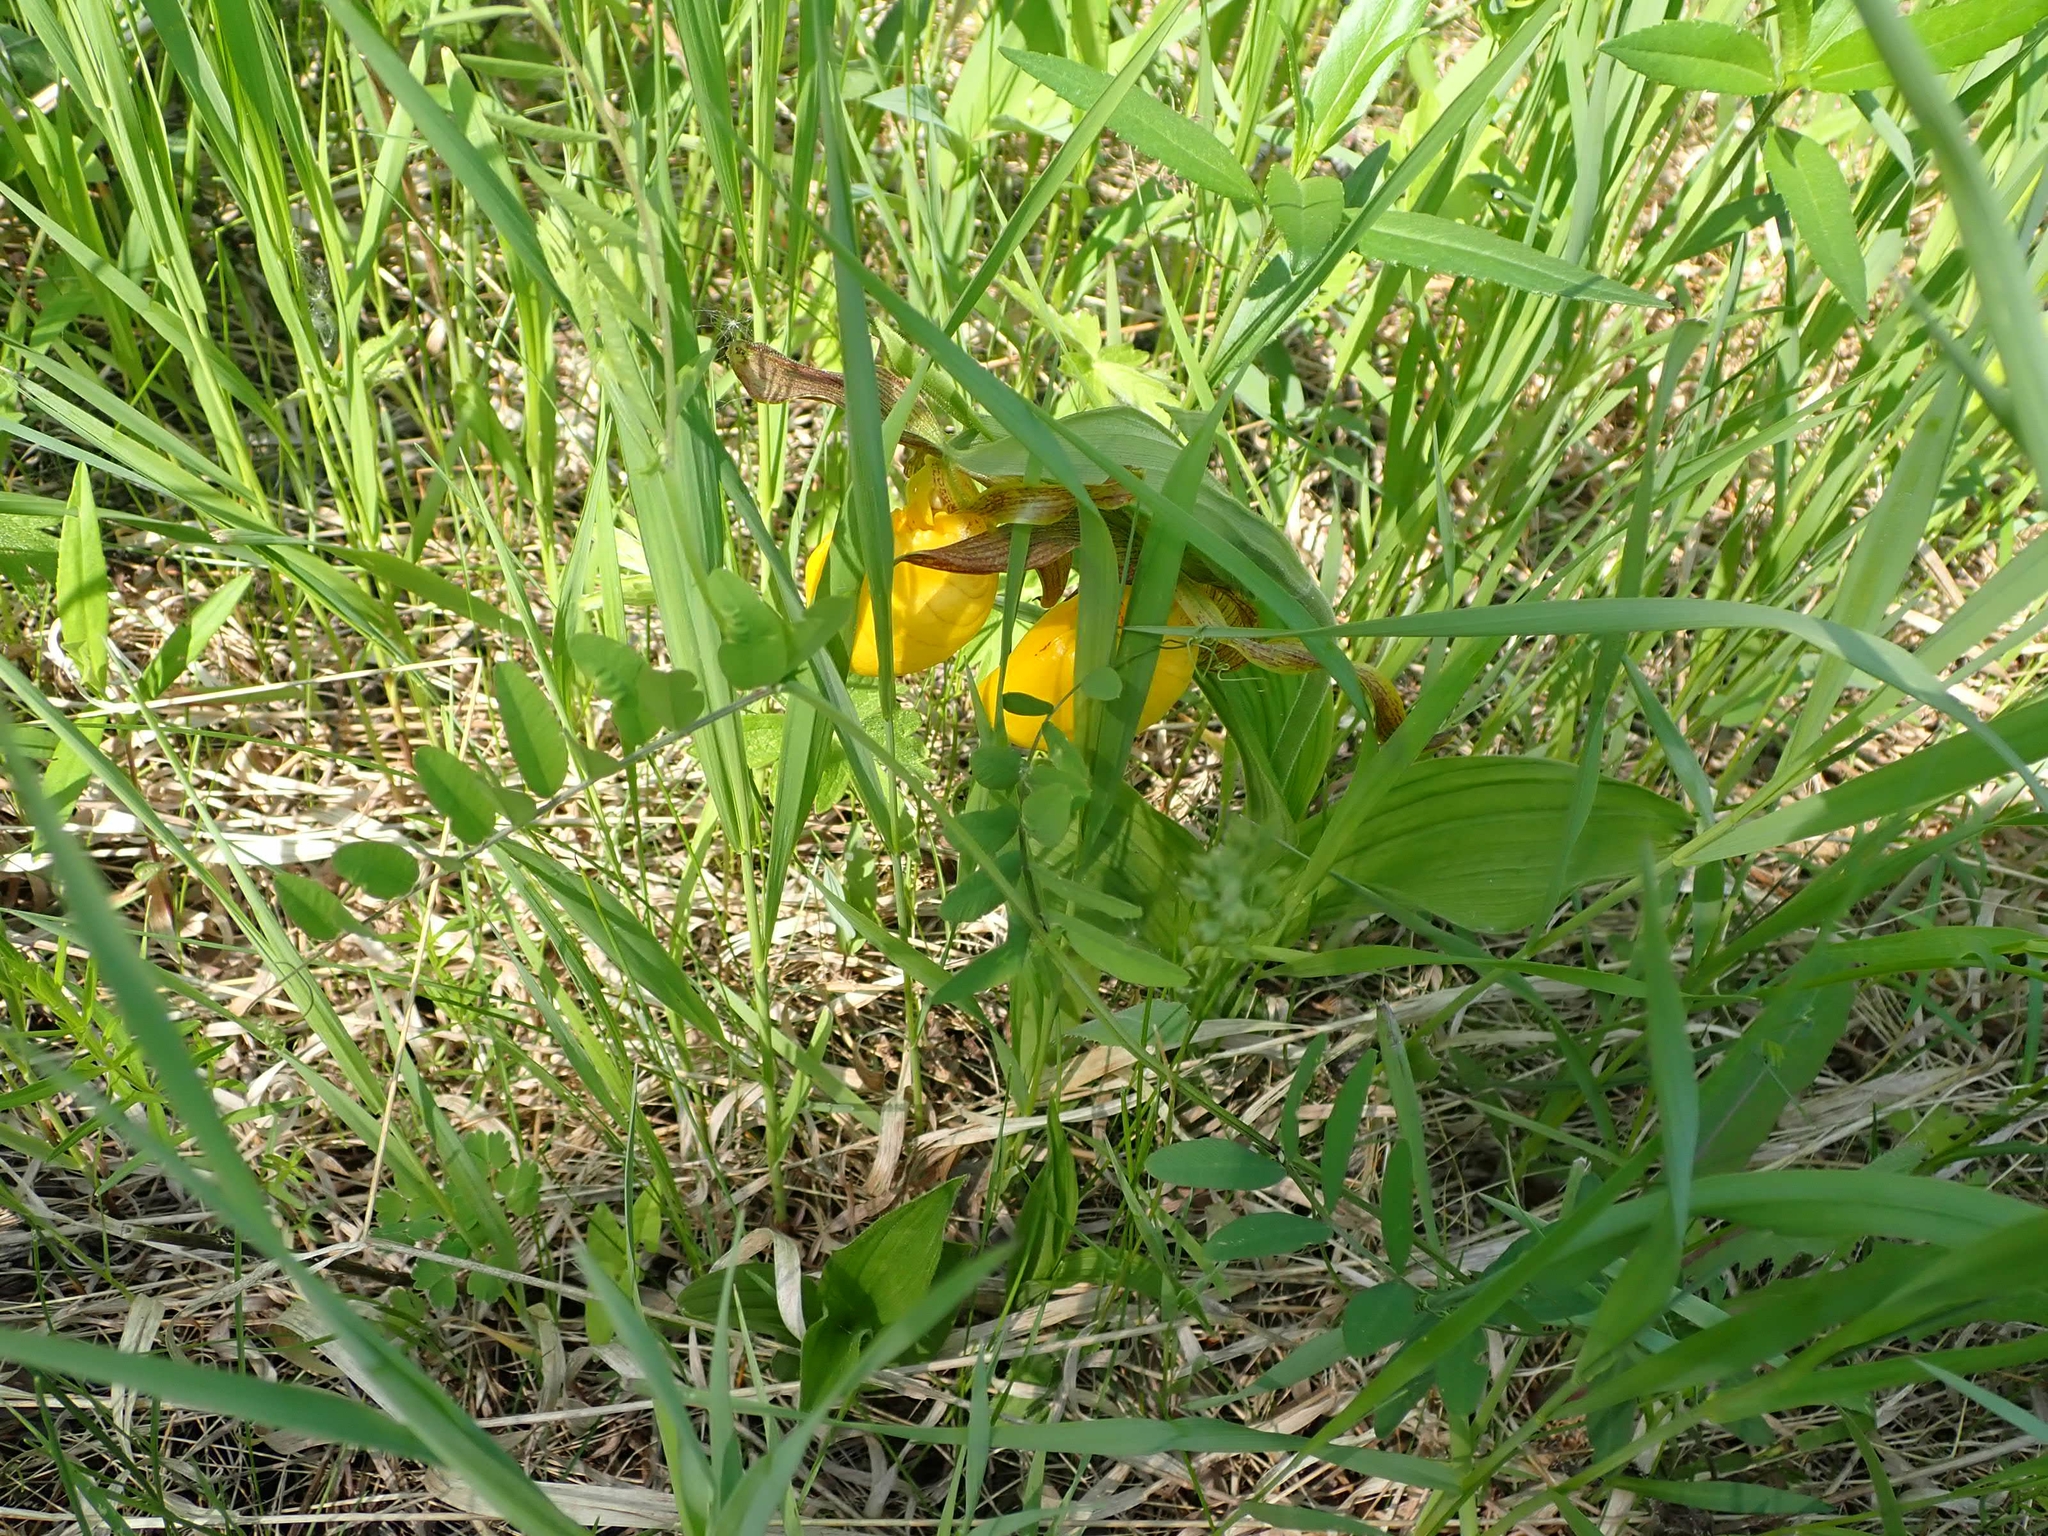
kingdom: Plantae
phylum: Tracheophyta
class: Liliopsida
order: Asparagales
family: Orchidaceae
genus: Cypripedium
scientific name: Cypripedium parviflorum
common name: American yellow lady's-slipper
